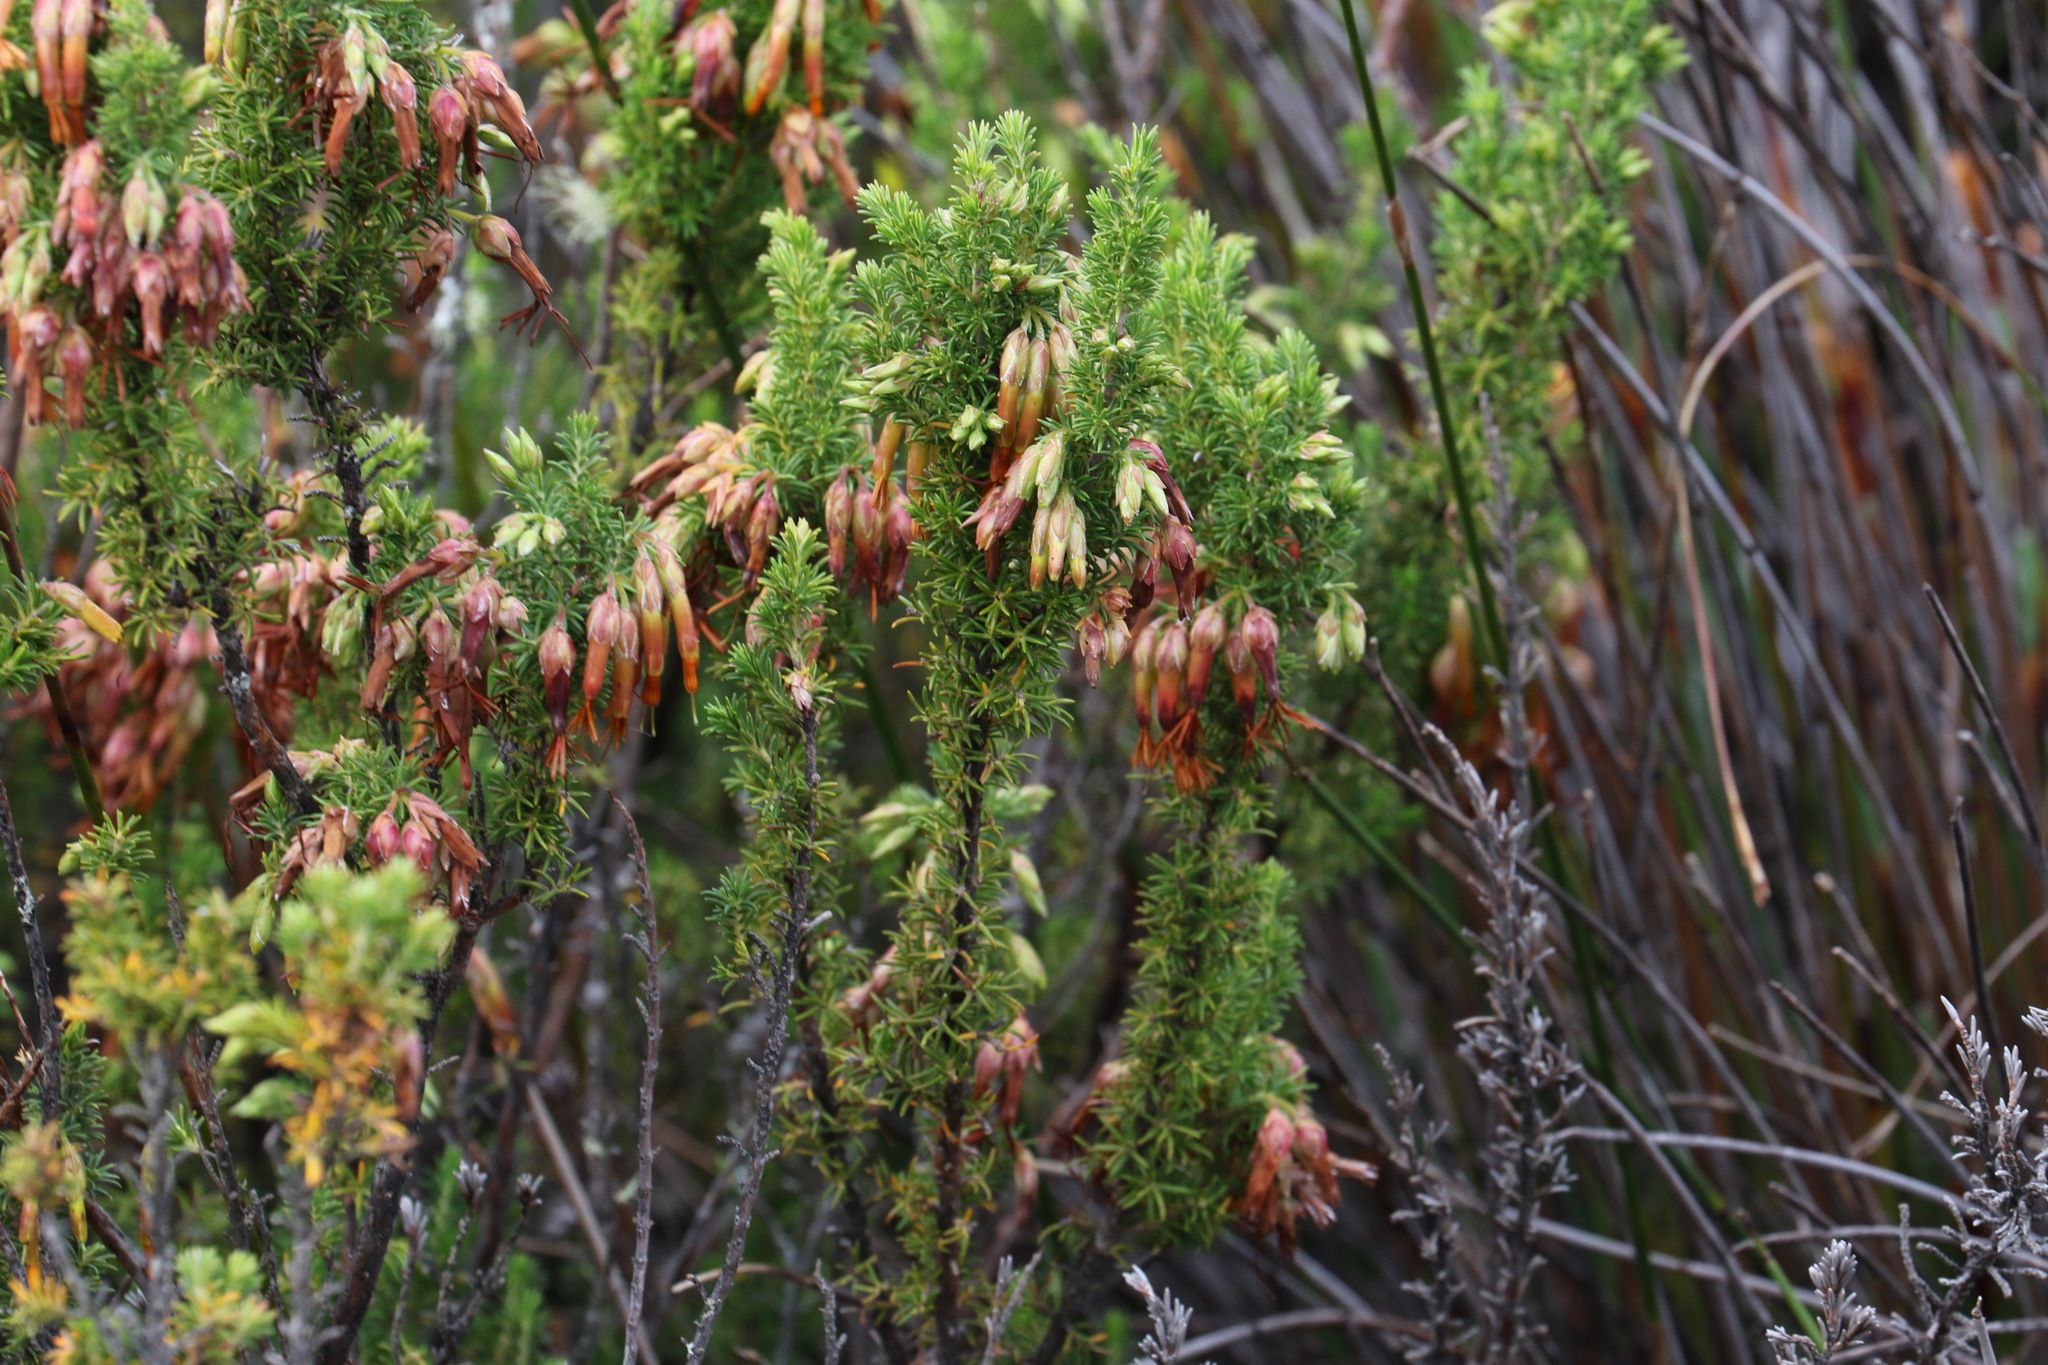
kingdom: Plantae
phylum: Tracheophyta
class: Magnoliopsida
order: Ericales
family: Ericaceae
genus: Erica
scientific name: Erica coccinea
